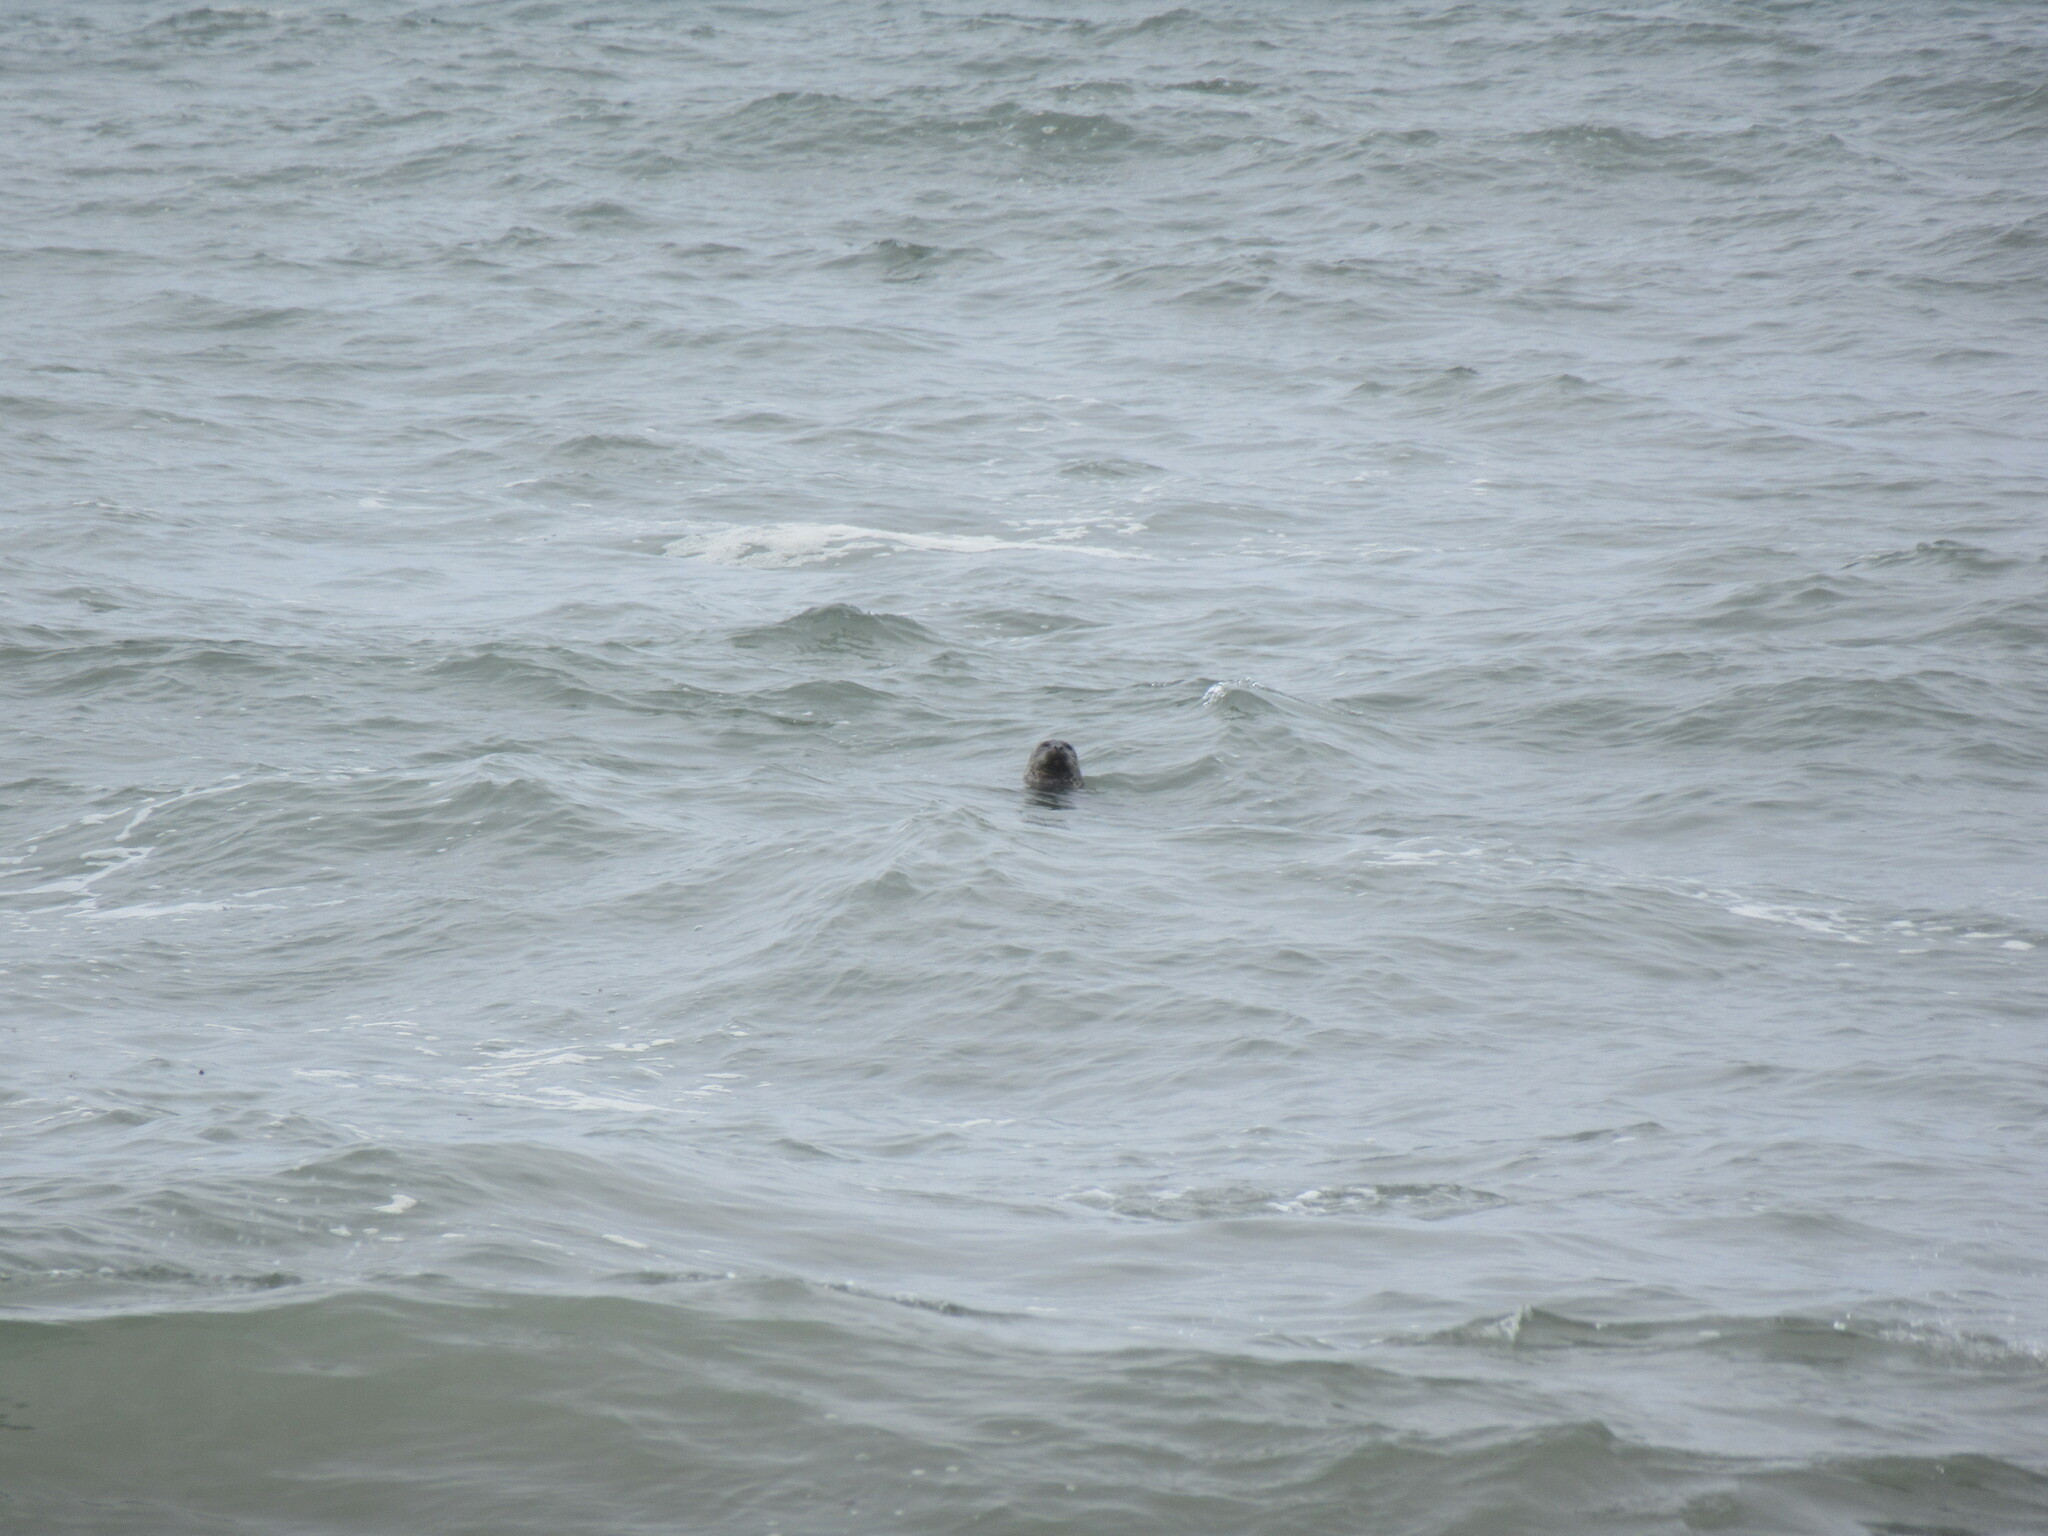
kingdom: Animalia
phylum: Chordata
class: Mammalia
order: Carnivora
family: Phocidae
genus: Phoca
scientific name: Phoca vitulina
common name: Harbor seal
